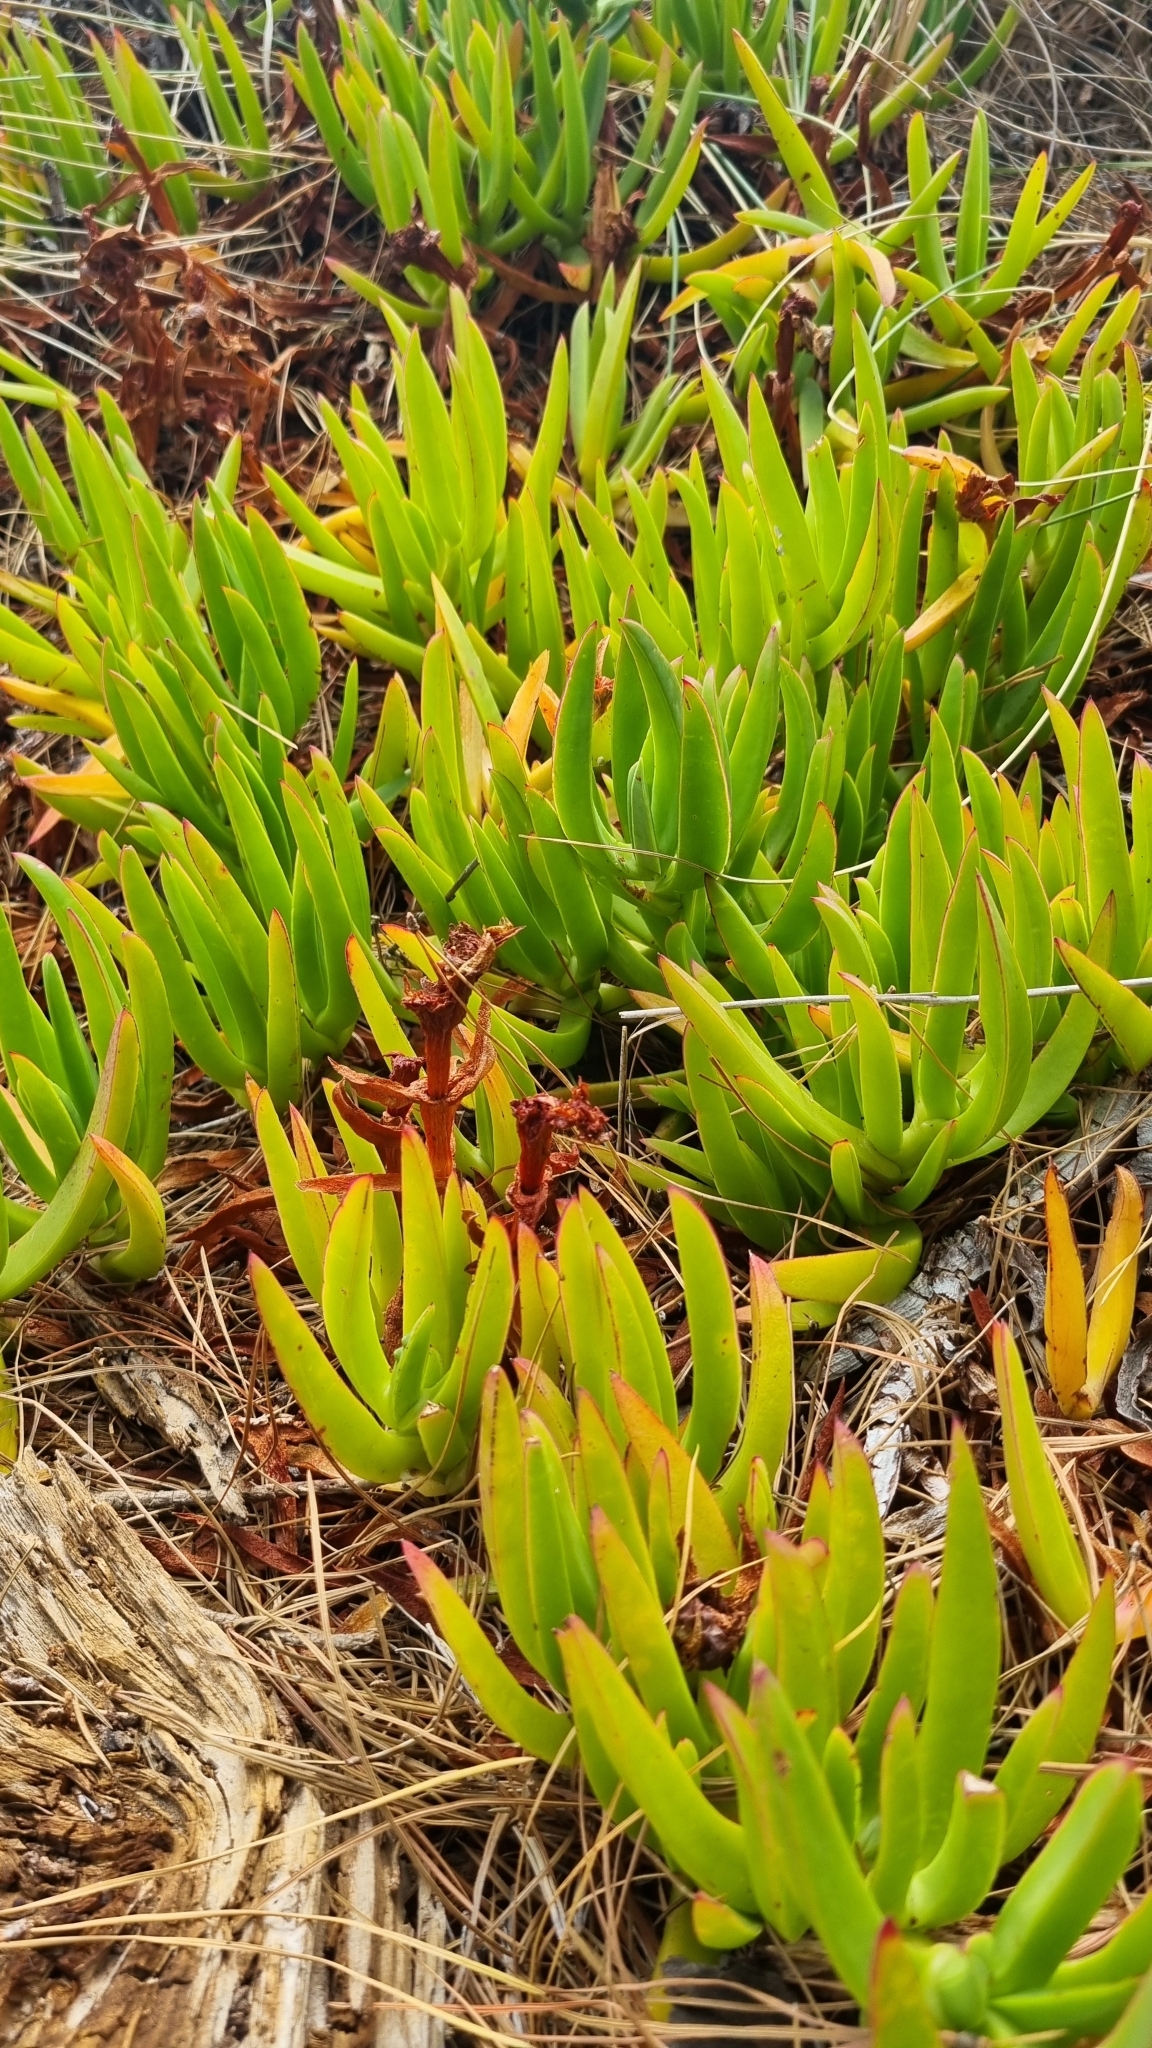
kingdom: Plantae
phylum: Tracheophyta
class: Magnoliopsida
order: Caryophyllales
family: Aizoaceae
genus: Carpobrotus
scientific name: Carpobrotus chilensis
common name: Sea fig
